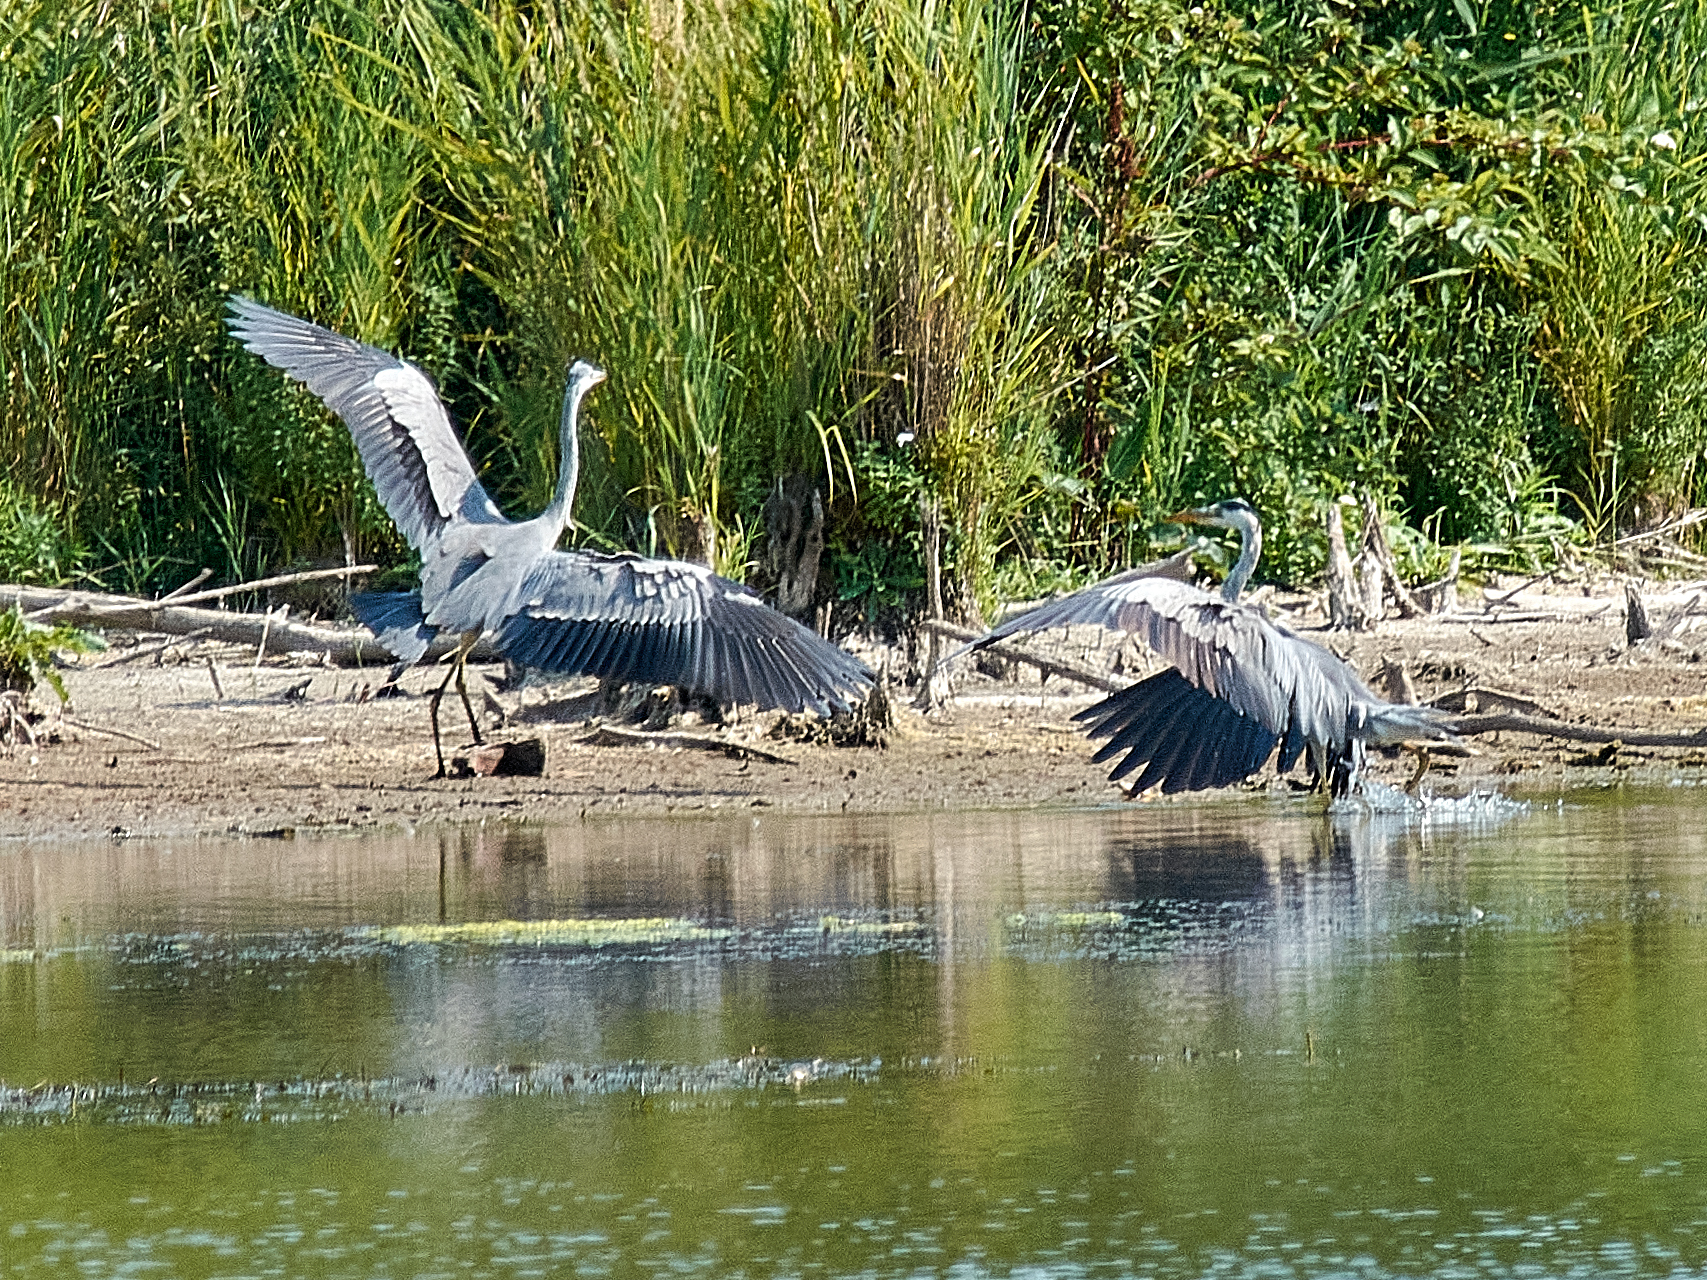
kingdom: Animalia
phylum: Chordata
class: Aves
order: Pelecaniformes
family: Ardeidae
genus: Ardea
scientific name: Ardea cinerea
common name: Grey heron
